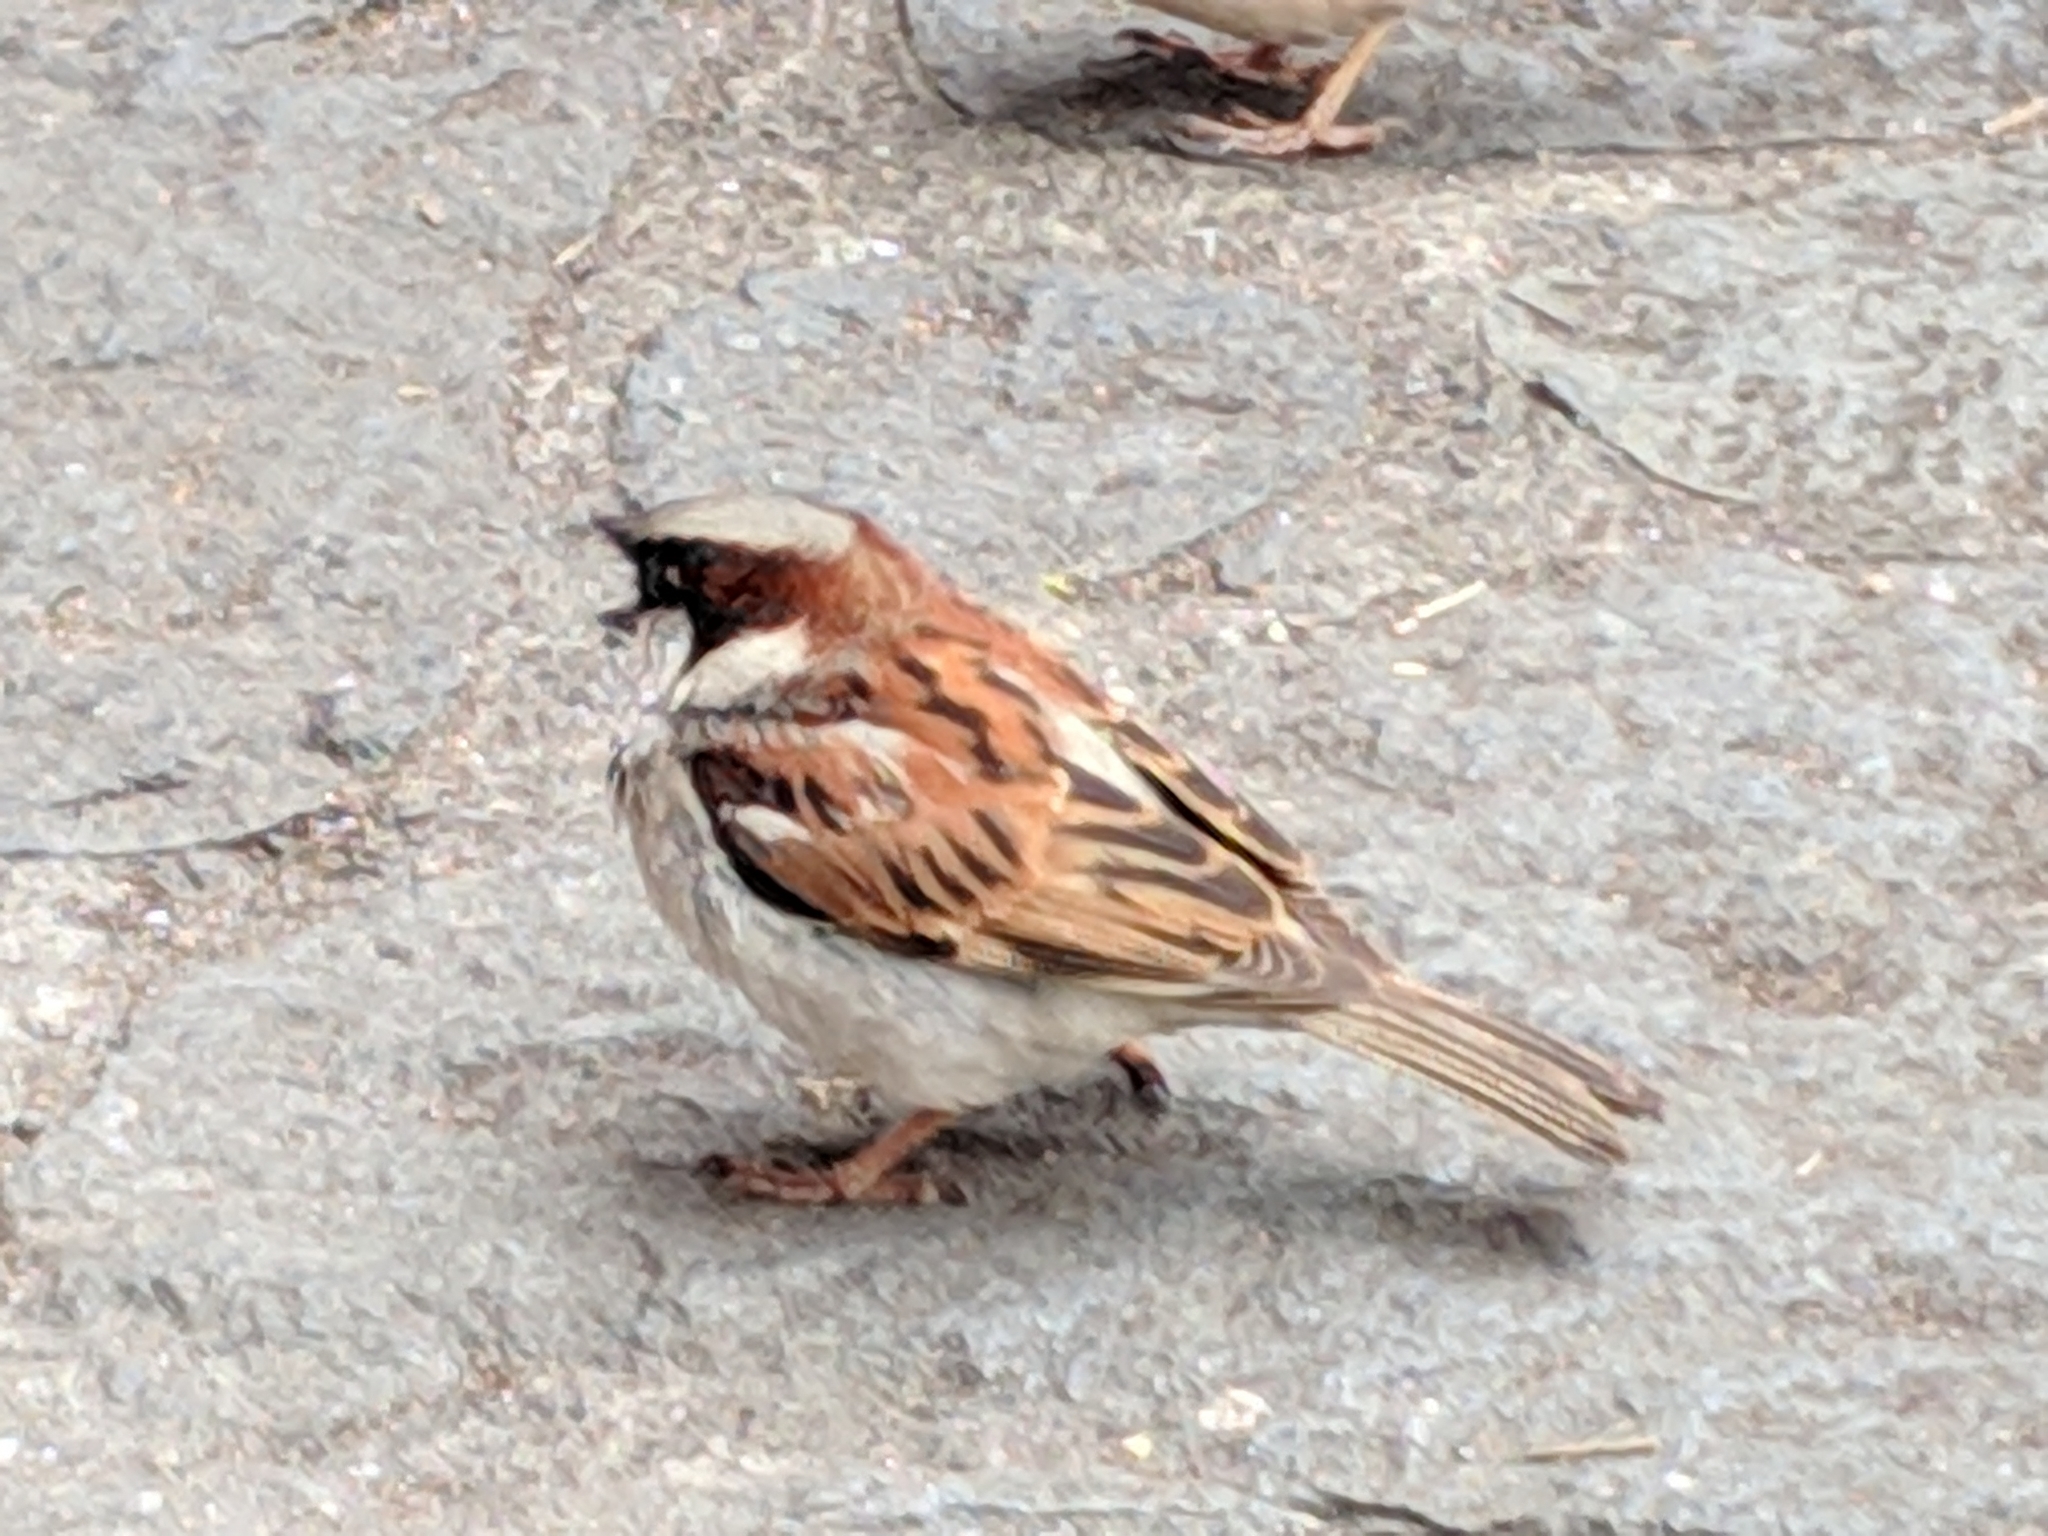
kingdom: Animalia
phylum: Chordata
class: Aves
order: Passeriformes
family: Passeridae
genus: Passer
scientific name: Passer domesticus
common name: House sparrow
